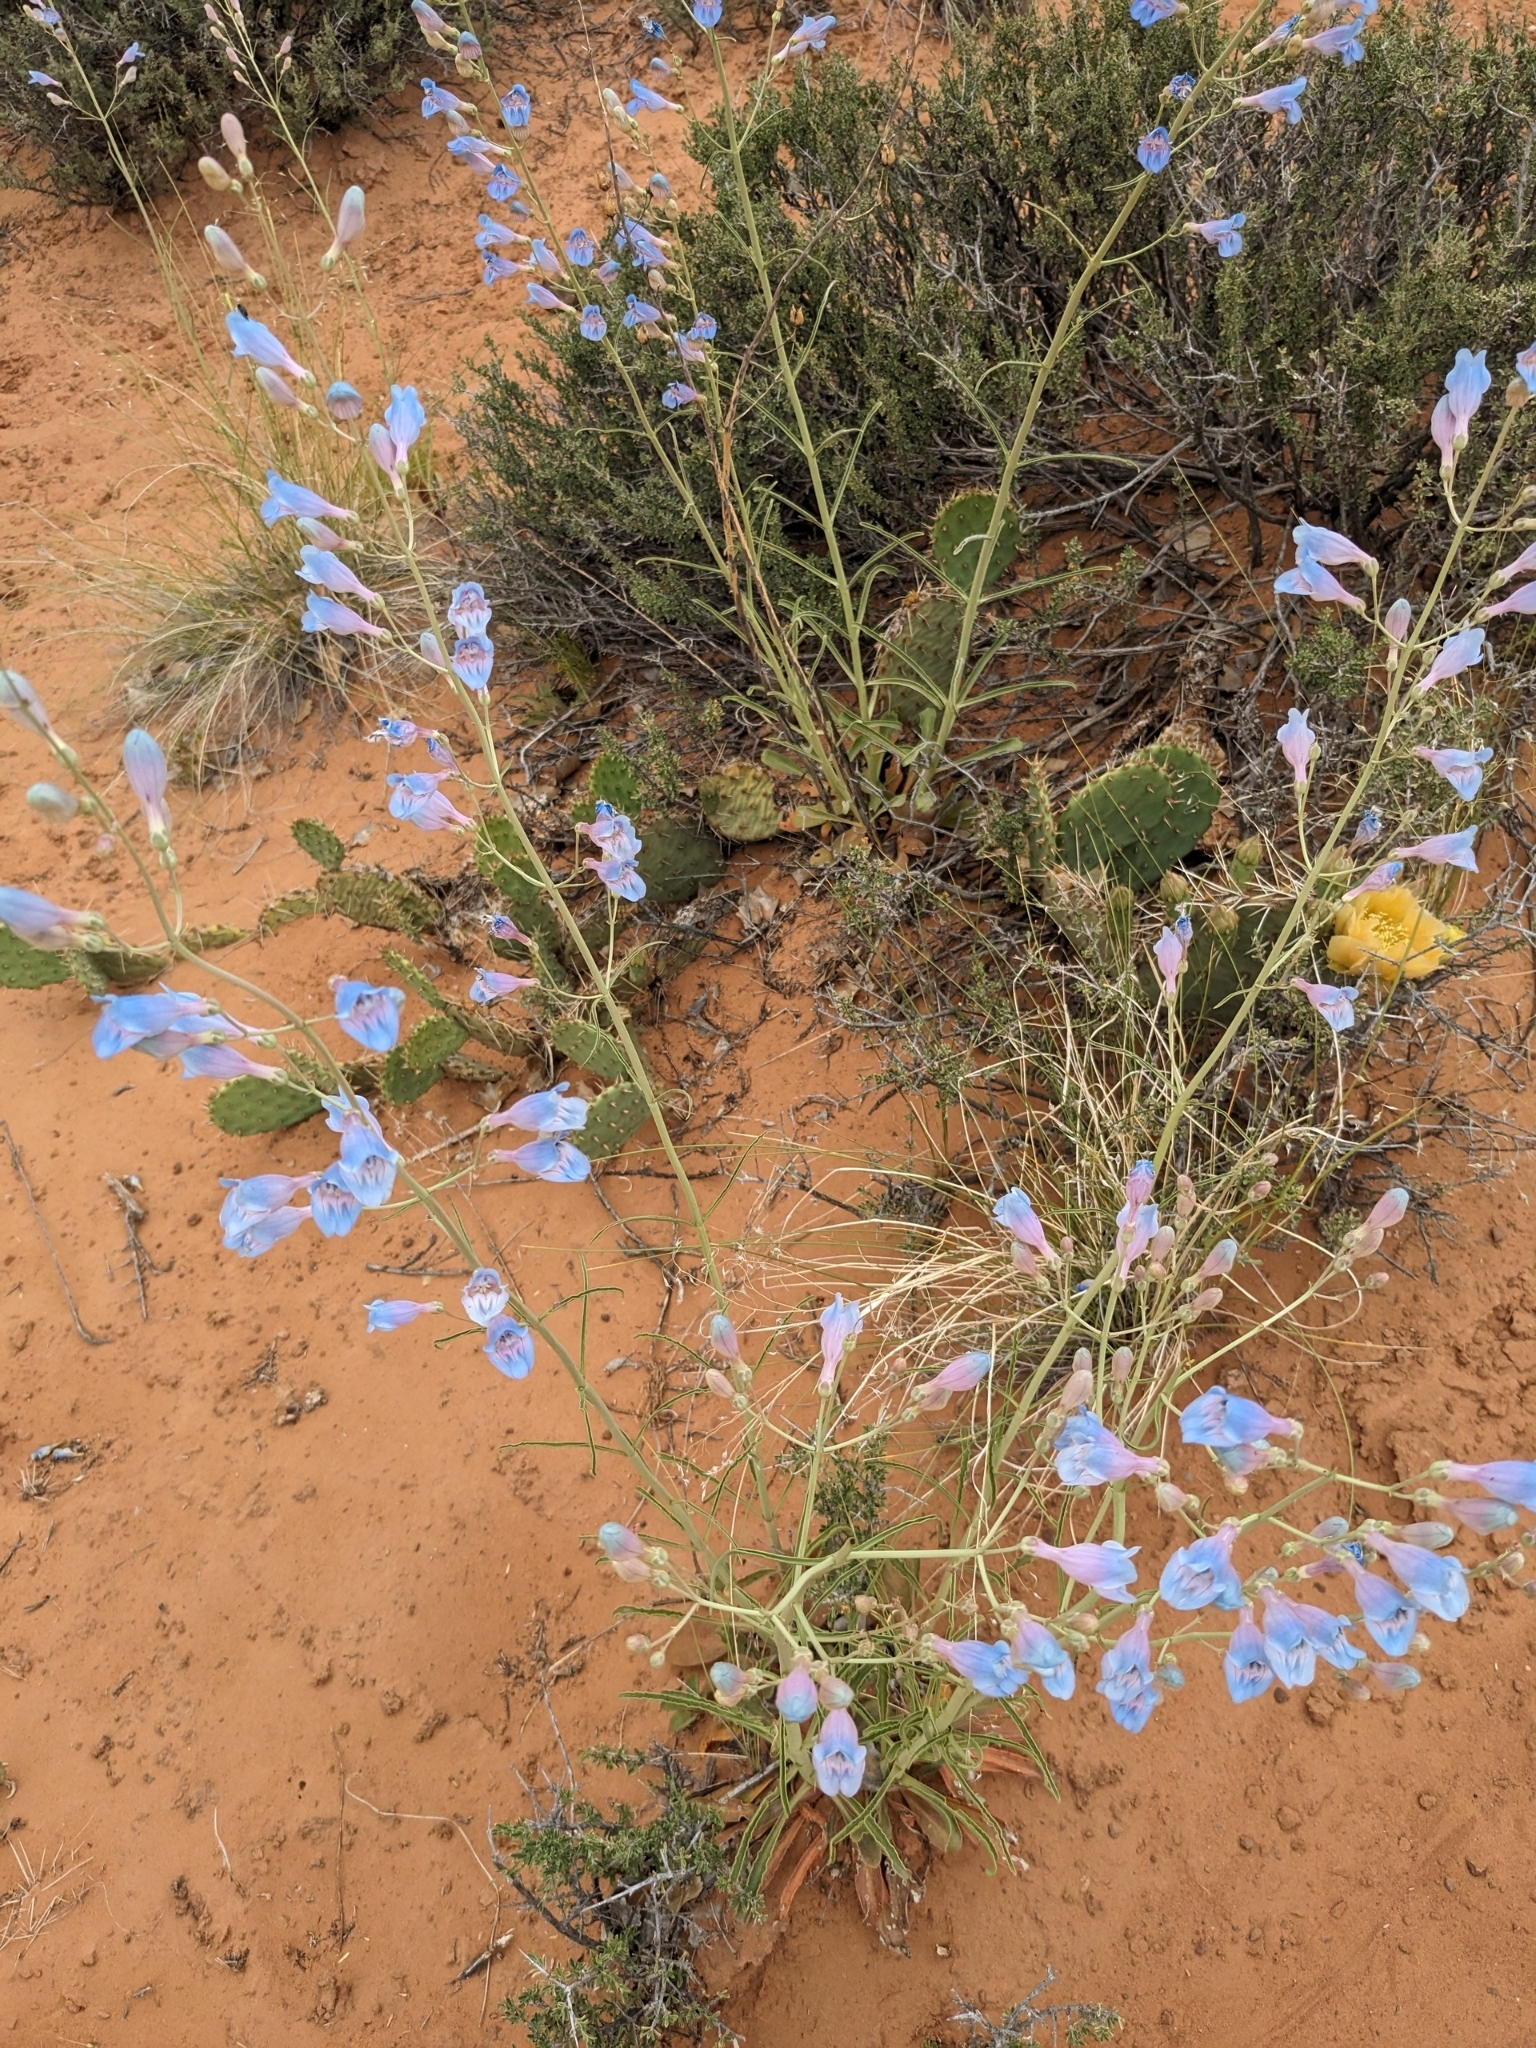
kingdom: Plantae
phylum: Tracheophyta
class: Magnoliopsida
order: Lamiales
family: Plantaginaceae
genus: Penstemon
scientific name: Penstemon comarrhenus
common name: Dusty penstemon
